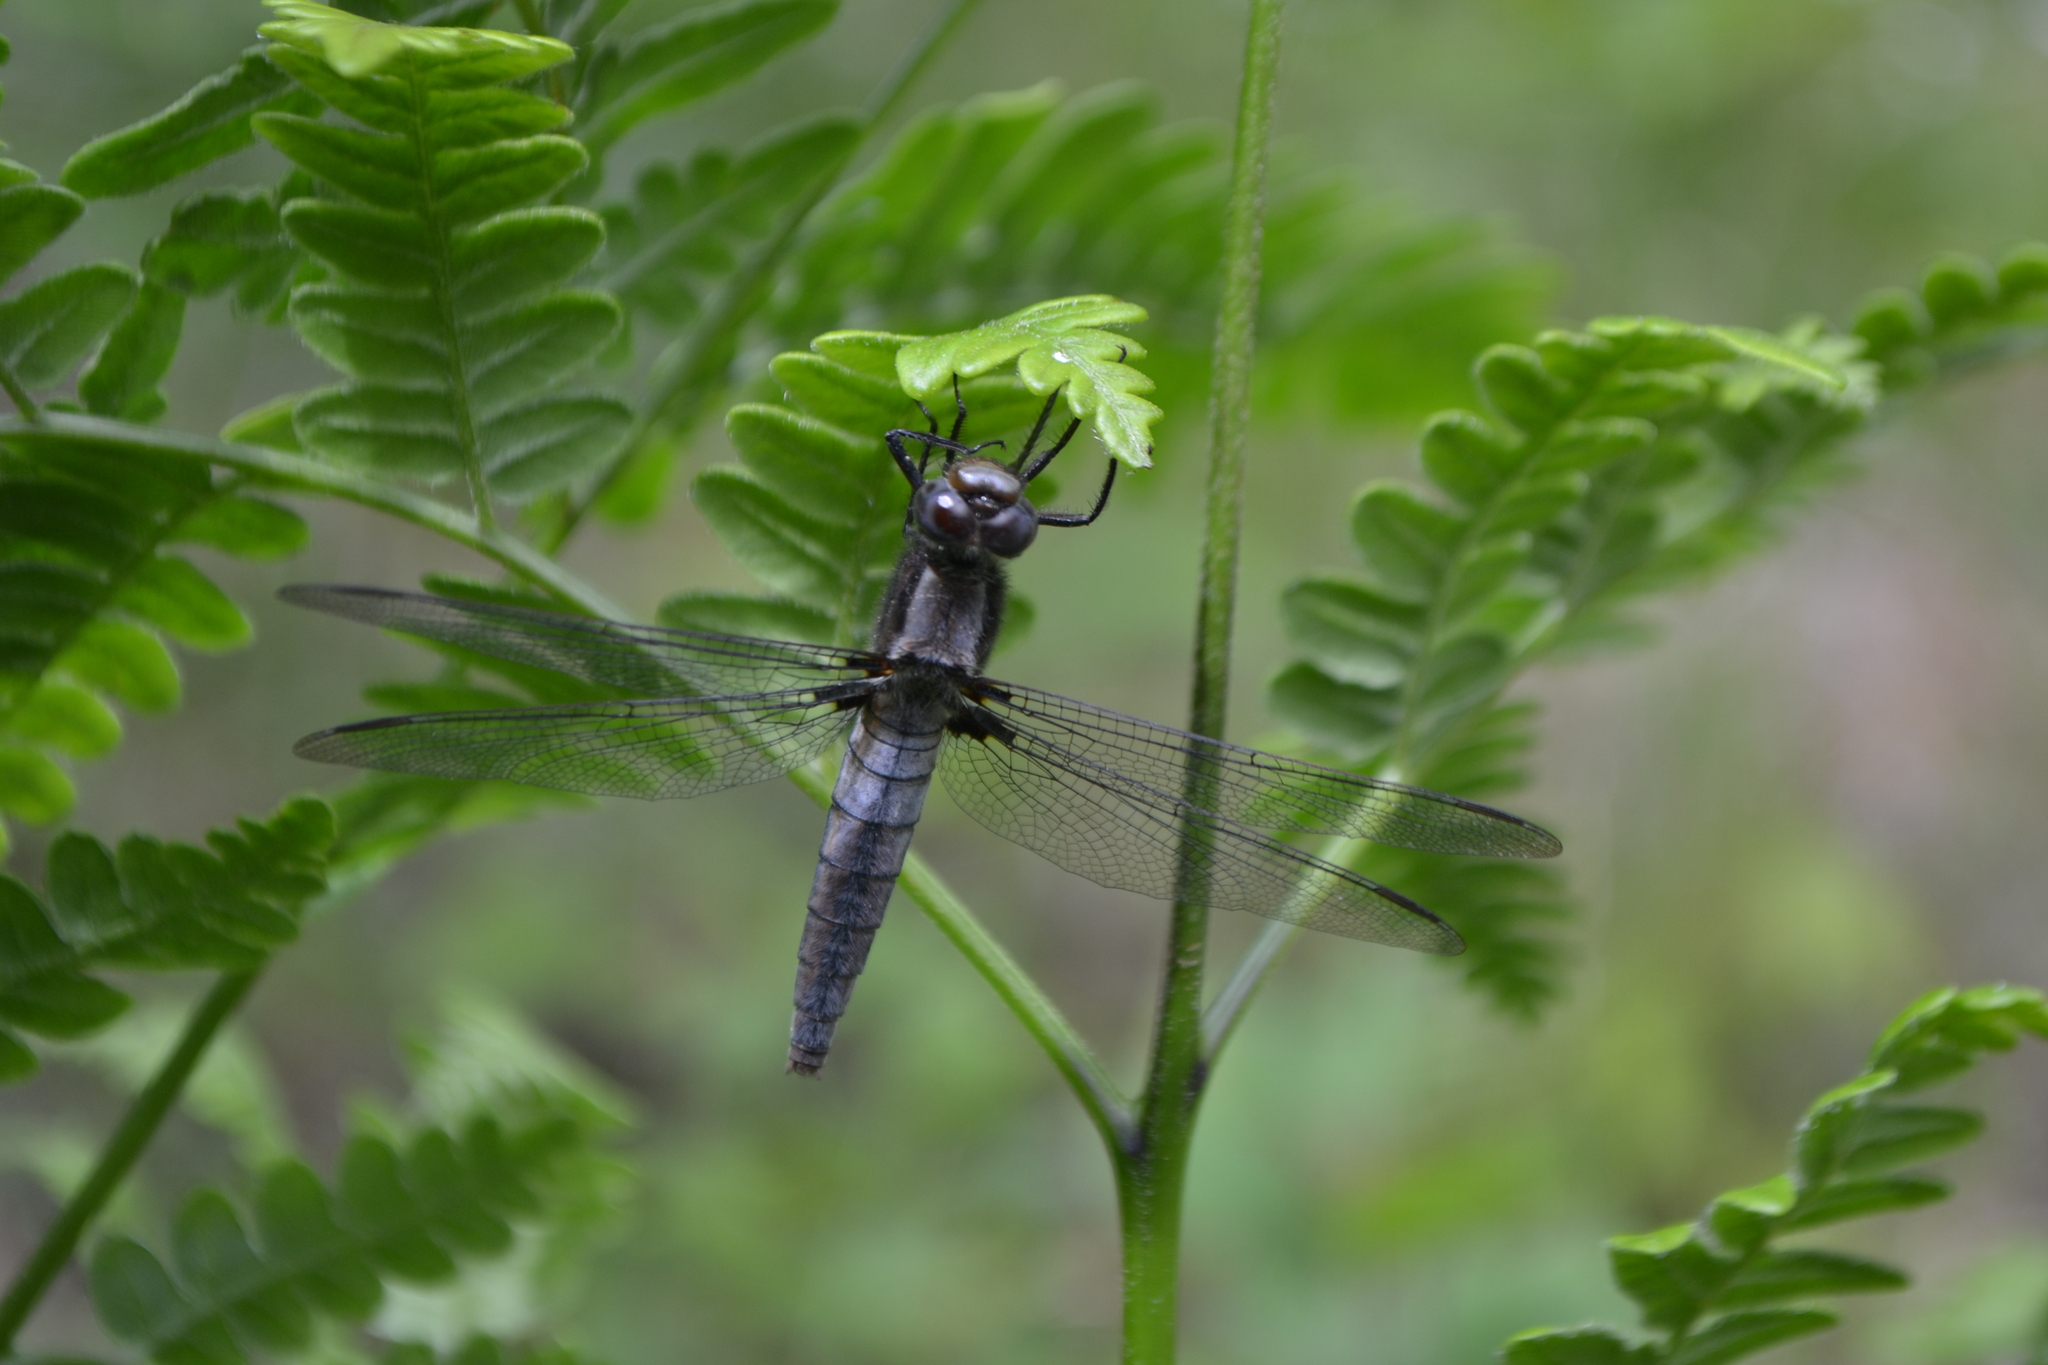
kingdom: Animalia
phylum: Arthropoda
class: Insecta
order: Odonata
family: Libellulidae
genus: Ladona
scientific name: Ladona julia
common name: Chalk-fronted corporal
